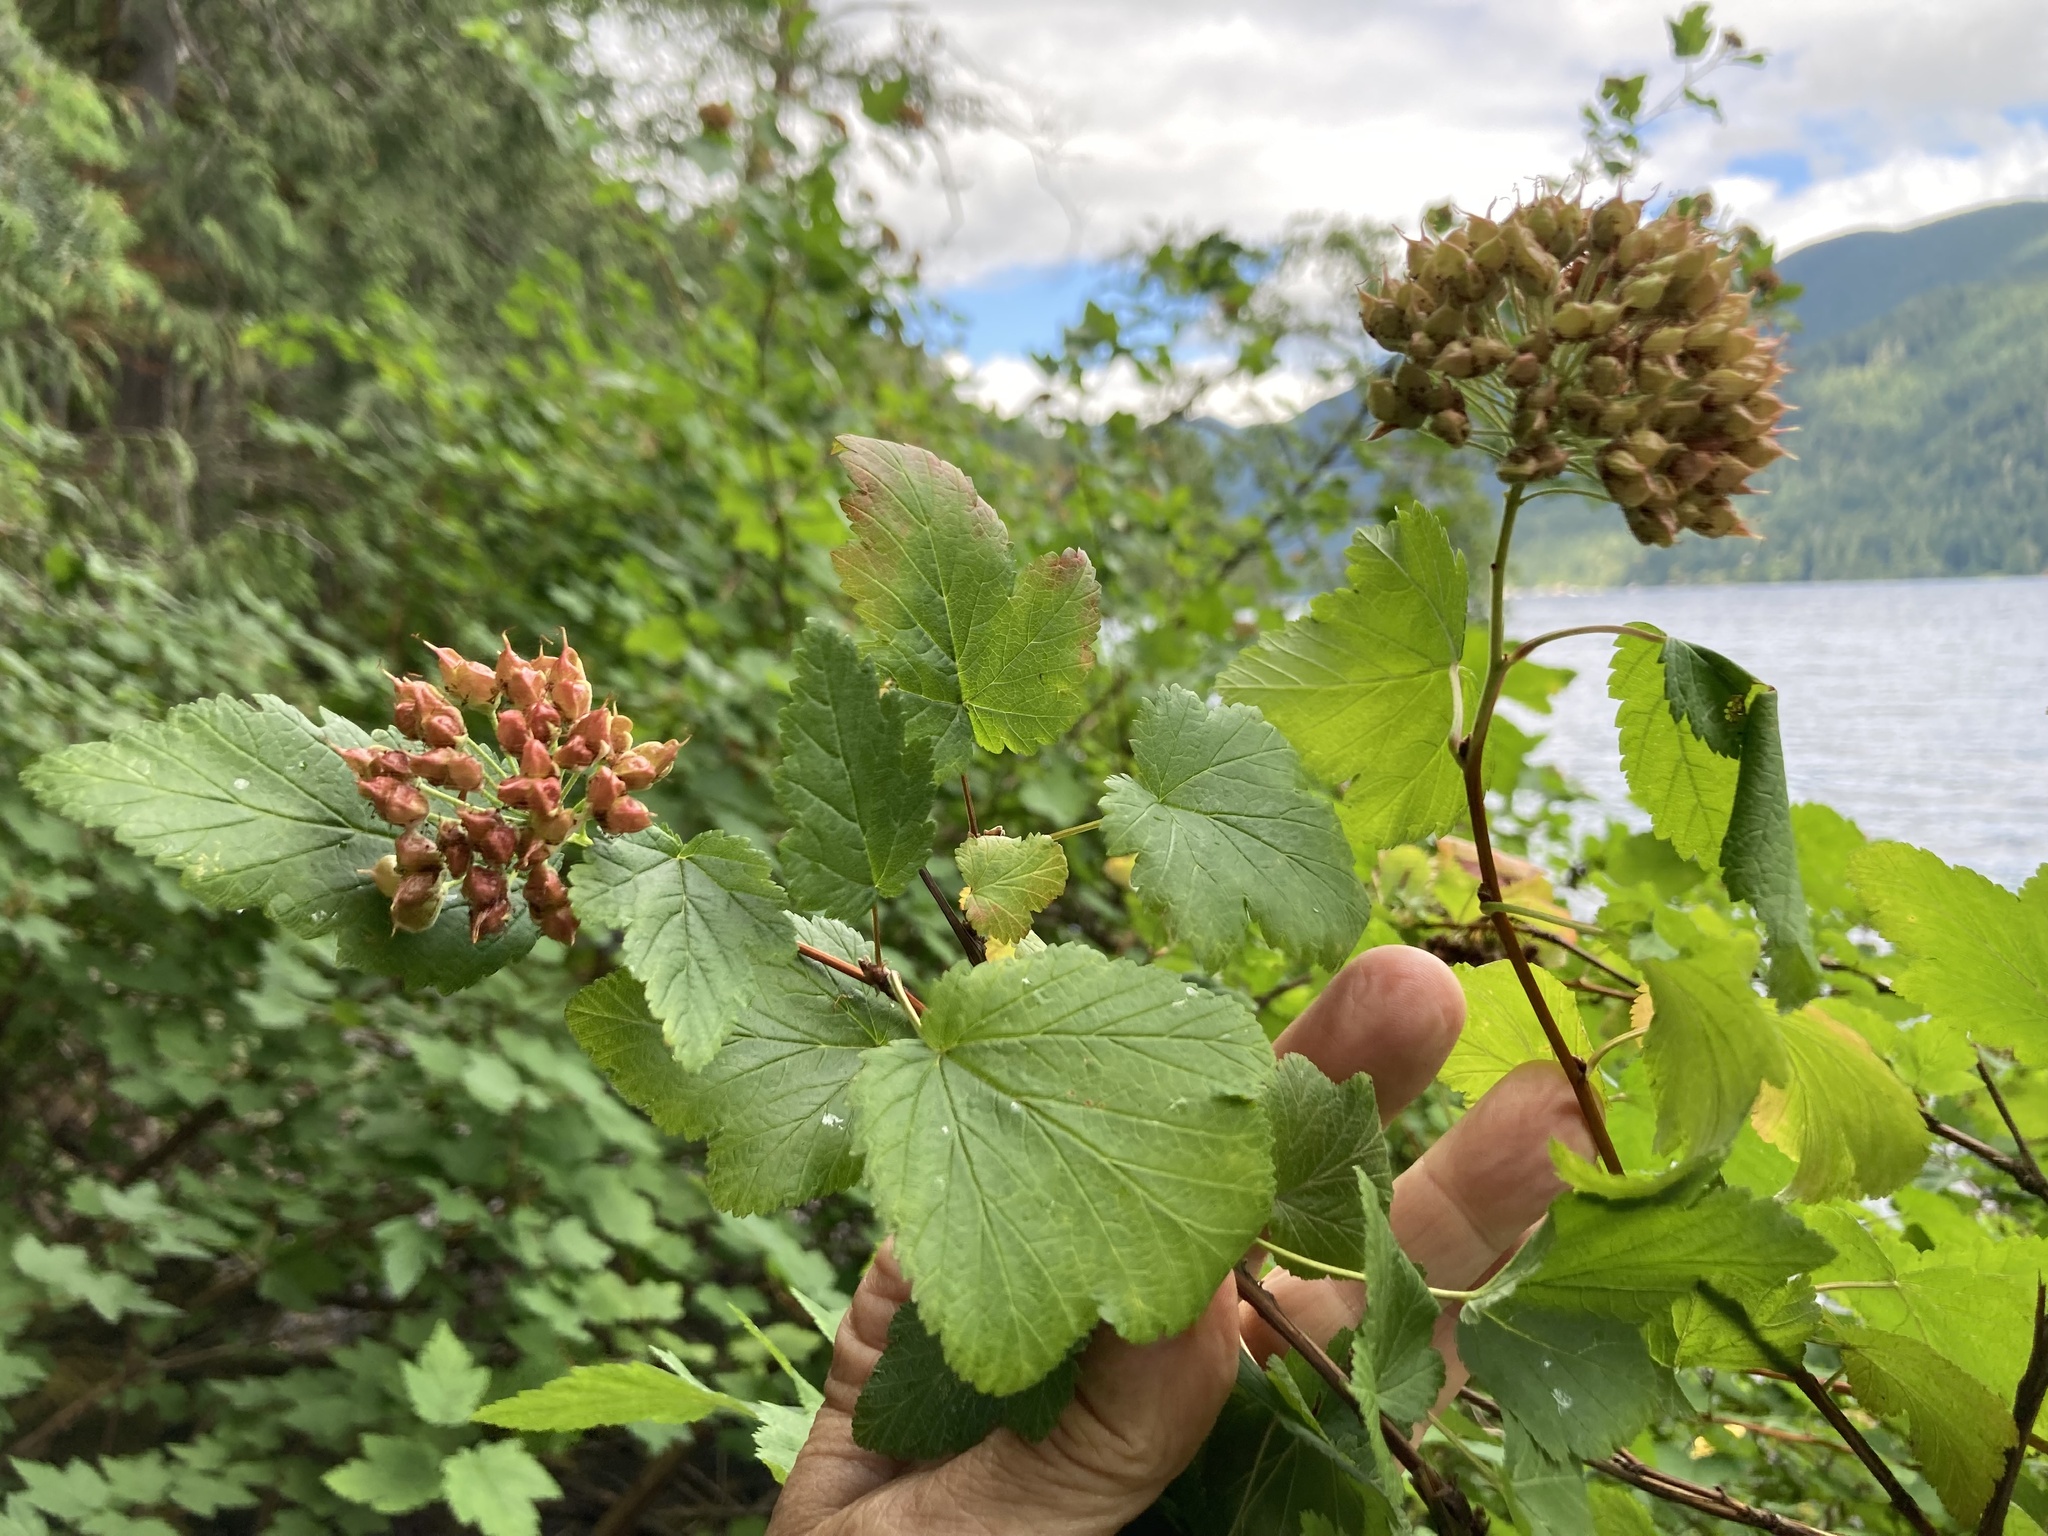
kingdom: Plantae
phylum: Tracheophyta
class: Magnoliopsida
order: Rosales
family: Rosaceae
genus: Physocarpus
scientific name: Physocarpus capitatus
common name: Pacific ninebark
